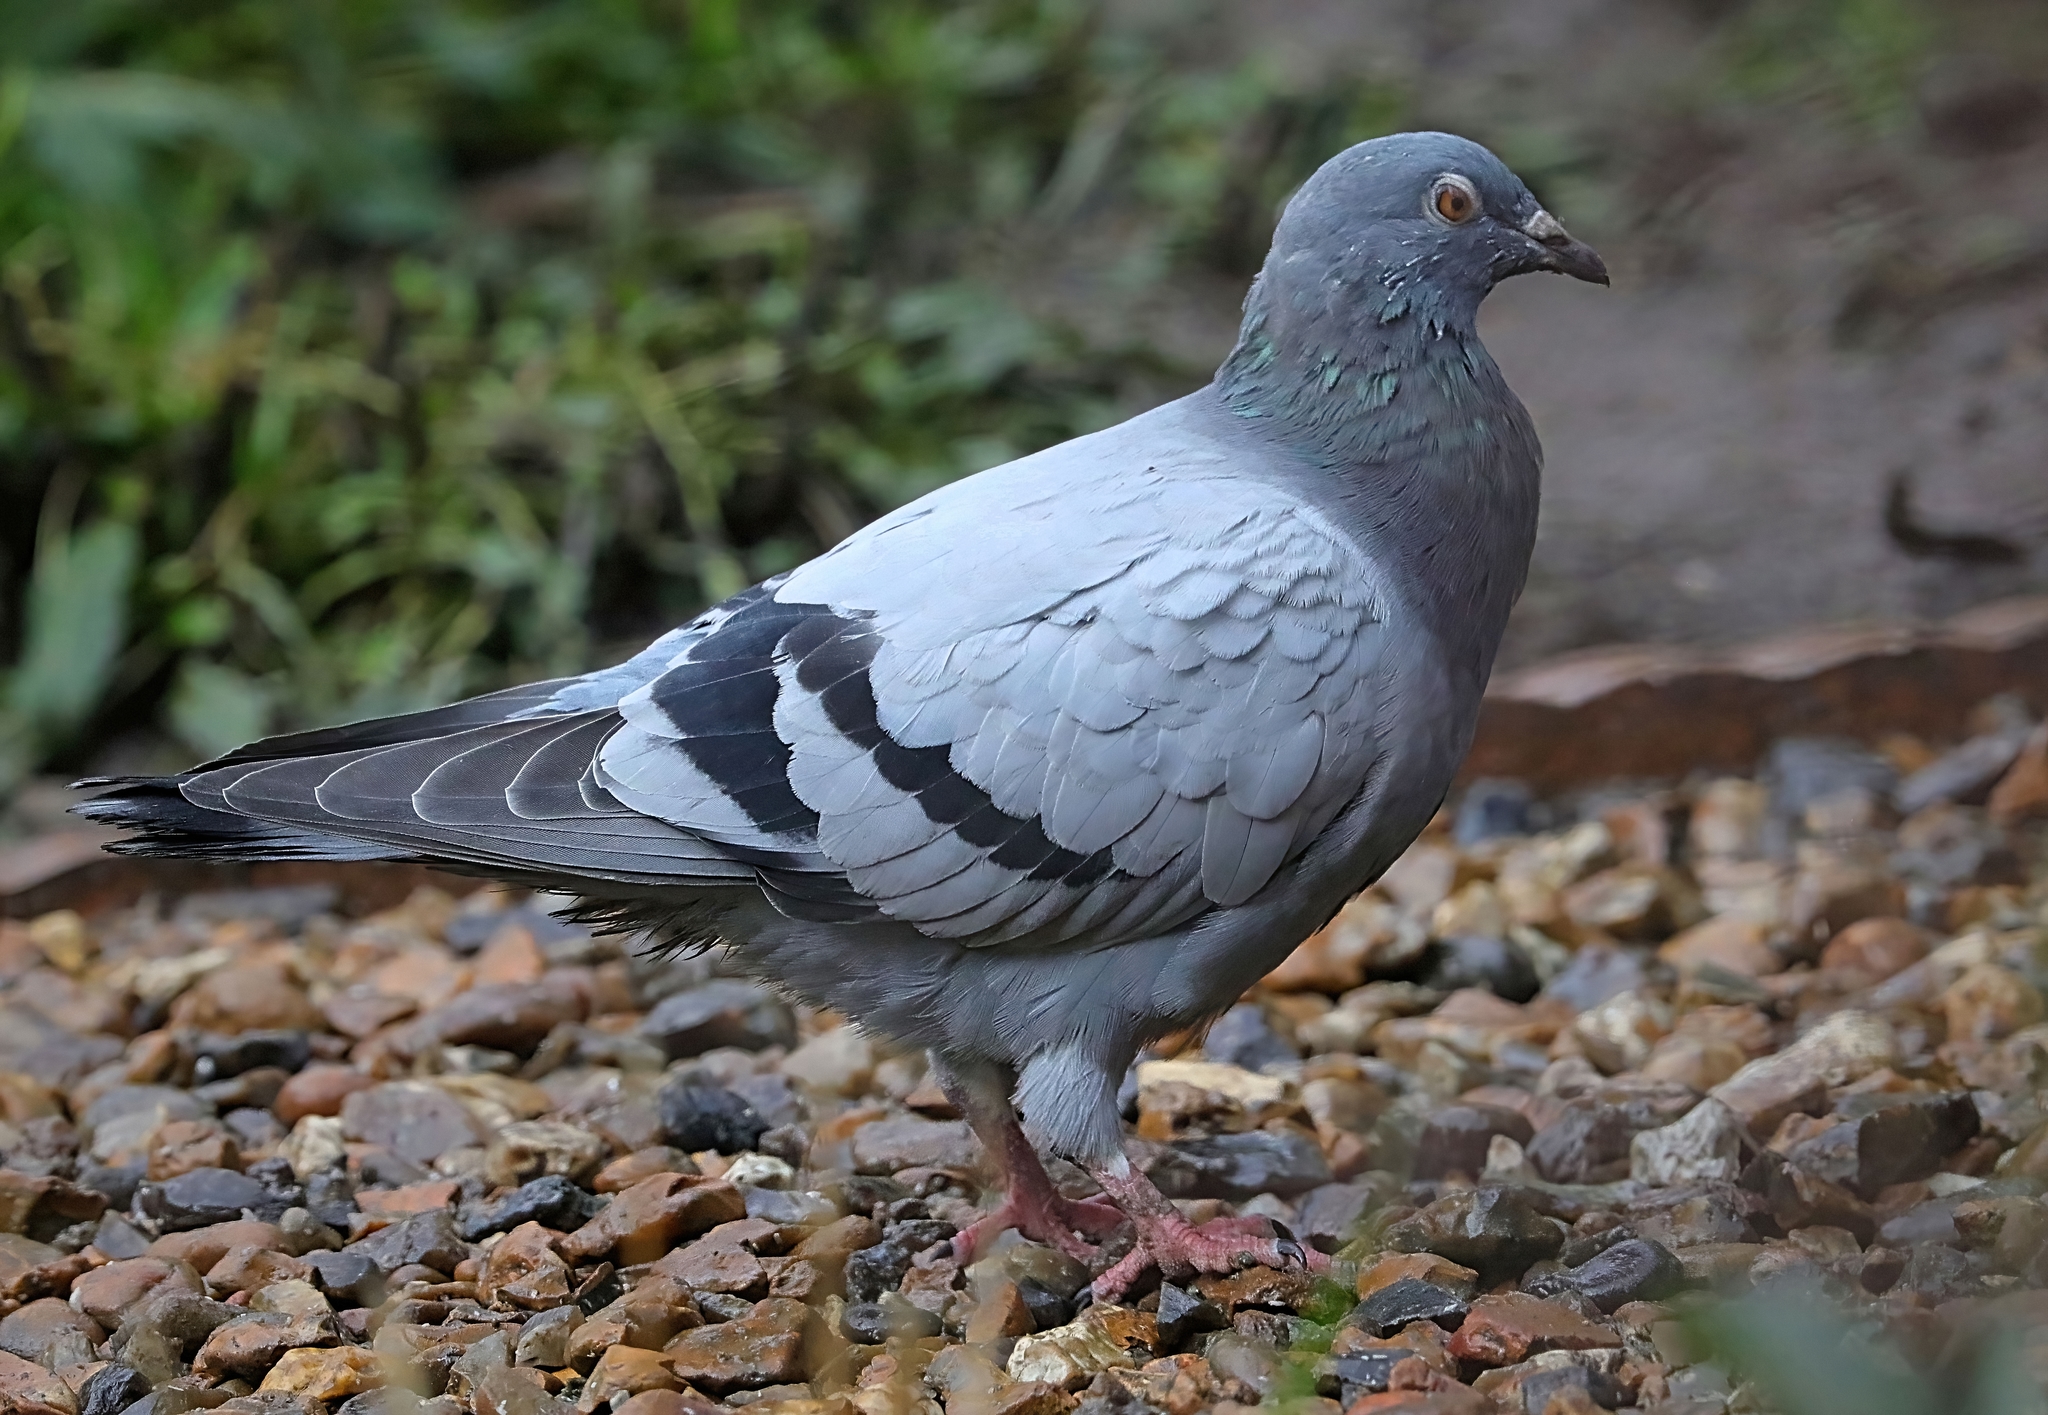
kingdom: Animalia
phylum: Chordata
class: Aves
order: Columbiformes
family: Columbidae
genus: Columba
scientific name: Columba livia
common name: Rock pigeon
